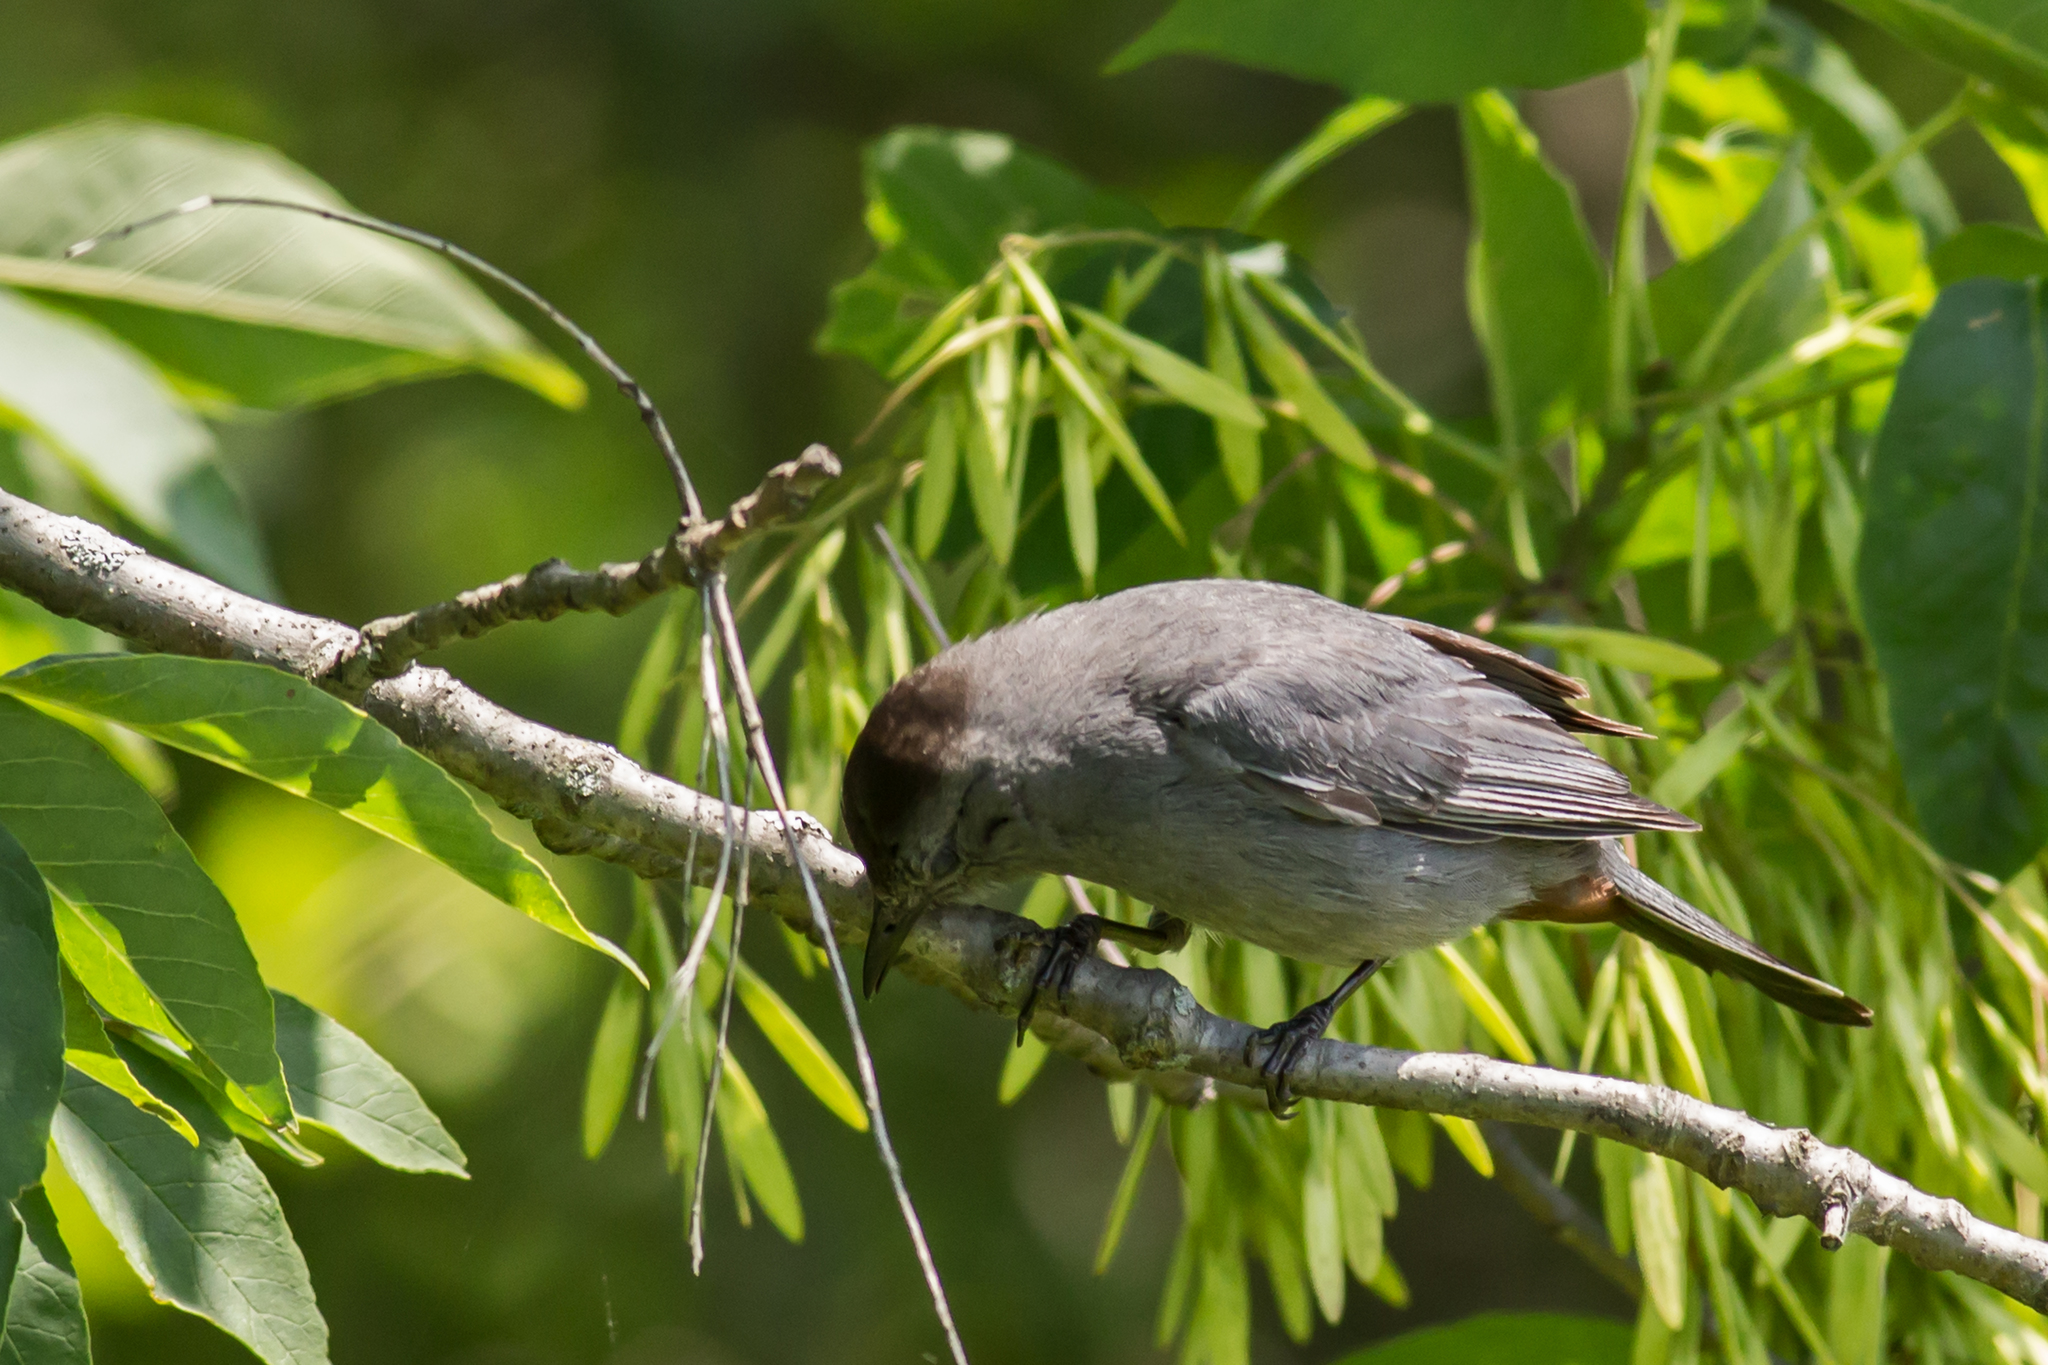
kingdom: Animalia
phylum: Chordata
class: Aves
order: Passeriformes
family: Mimidae
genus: Dumetella
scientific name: Dumetella carolinensis
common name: Gray catbird
